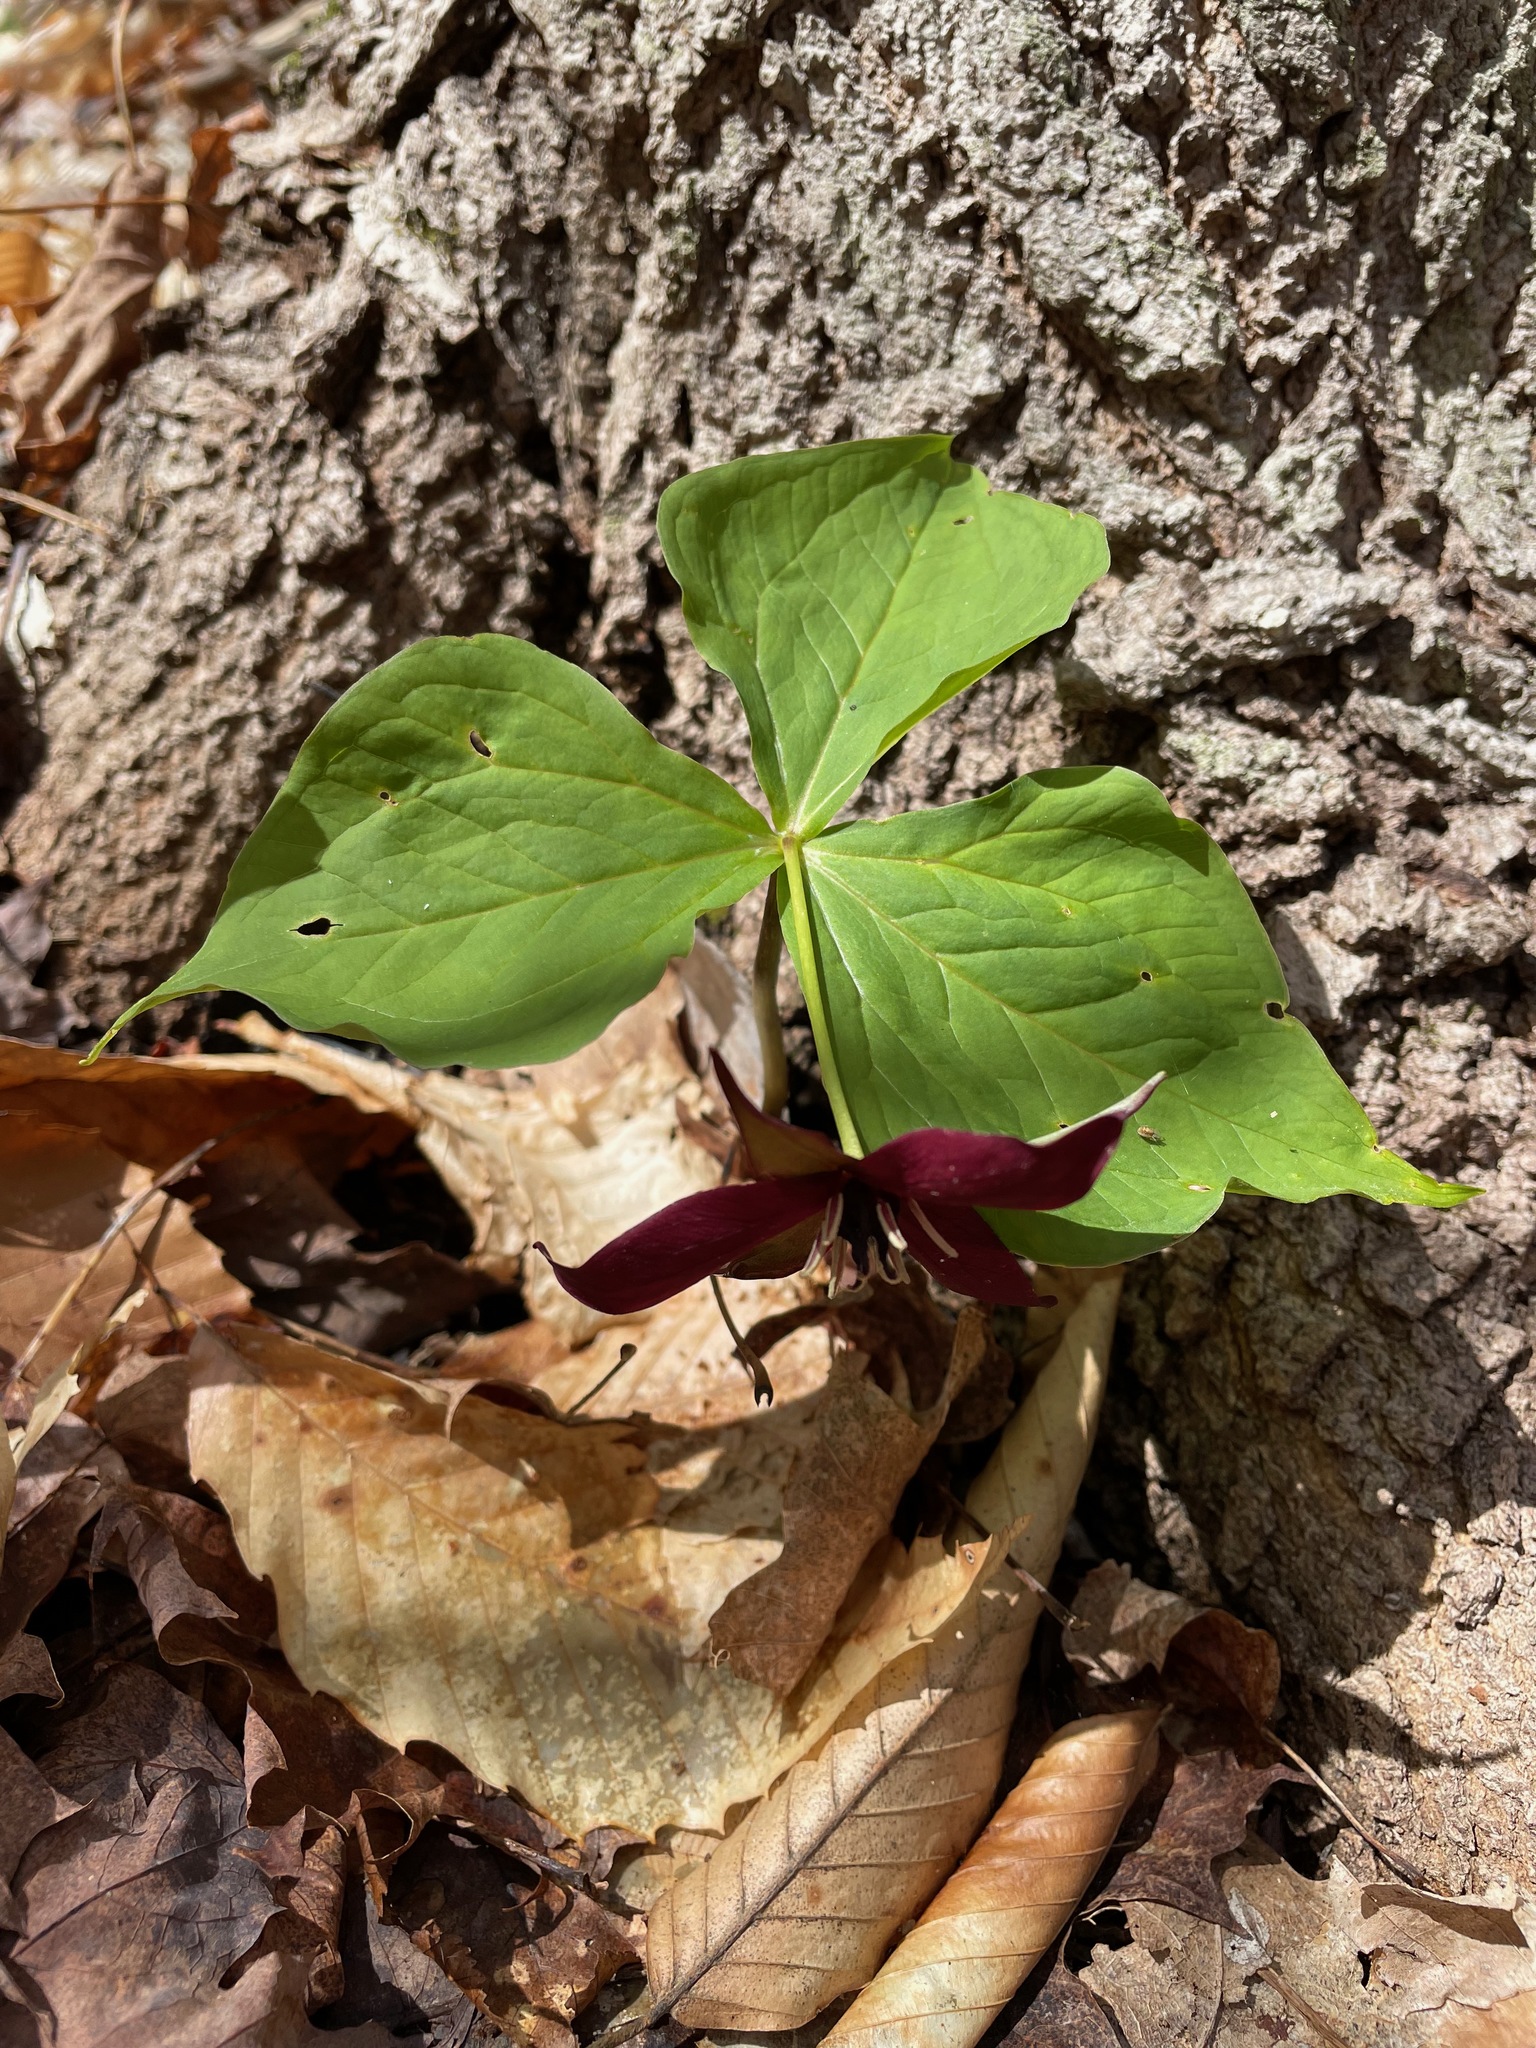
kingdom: Plantae
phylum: Tracheophyta
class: Liliopsida
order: Liliales
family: Melanthiaceae
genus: Trillium
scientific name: Trillium erectum
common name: Purple trillium
